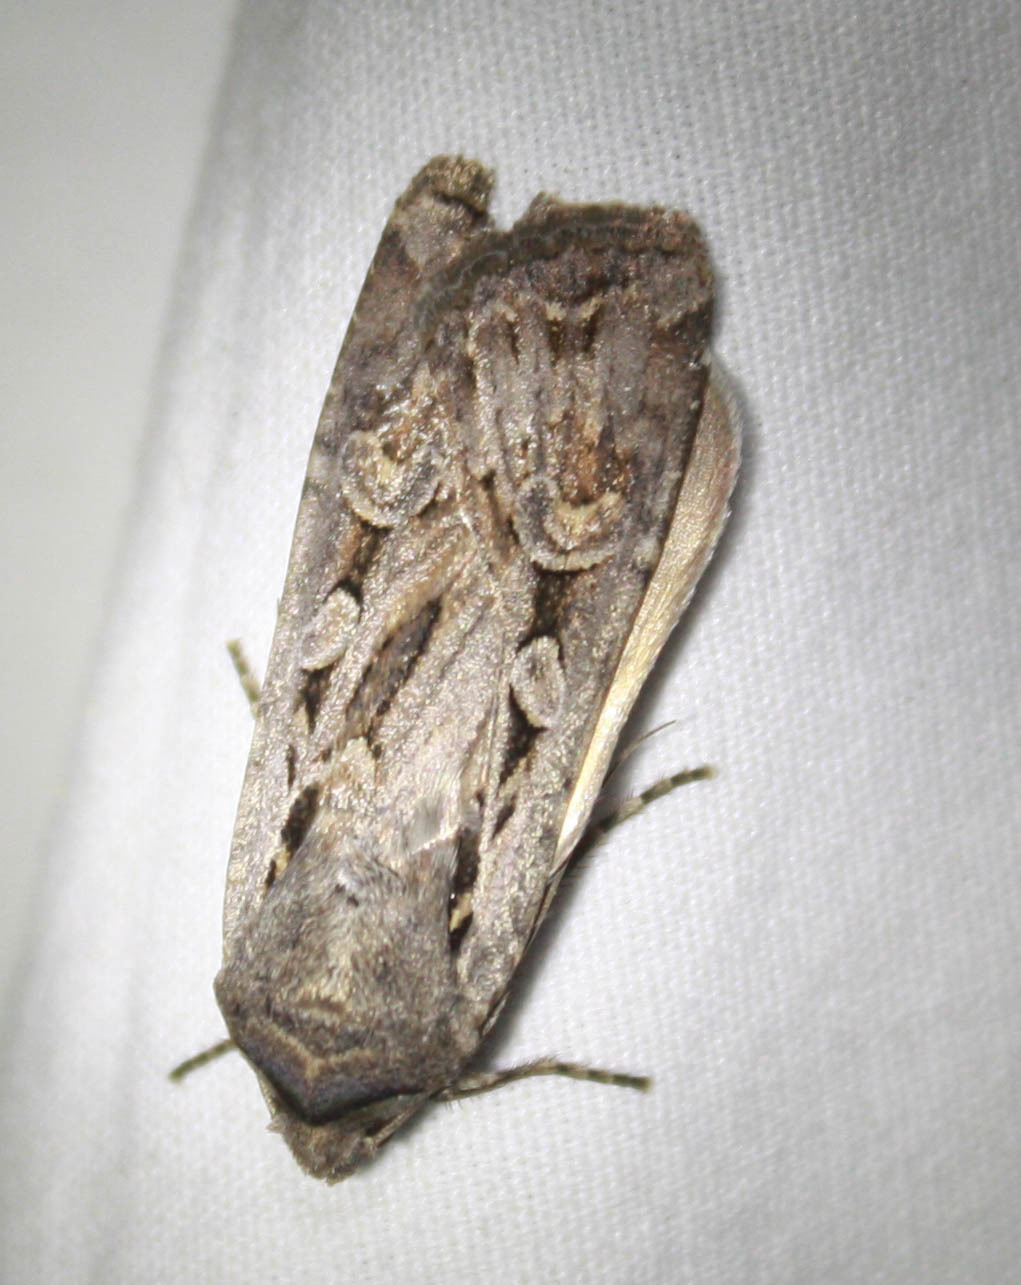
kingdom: Animalia
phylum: Arthropoda
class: Insecta
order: Lepidoptera
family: Noctuidae
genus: Euxoa
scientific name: Euxoa tessellata
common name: Striped cutworm
